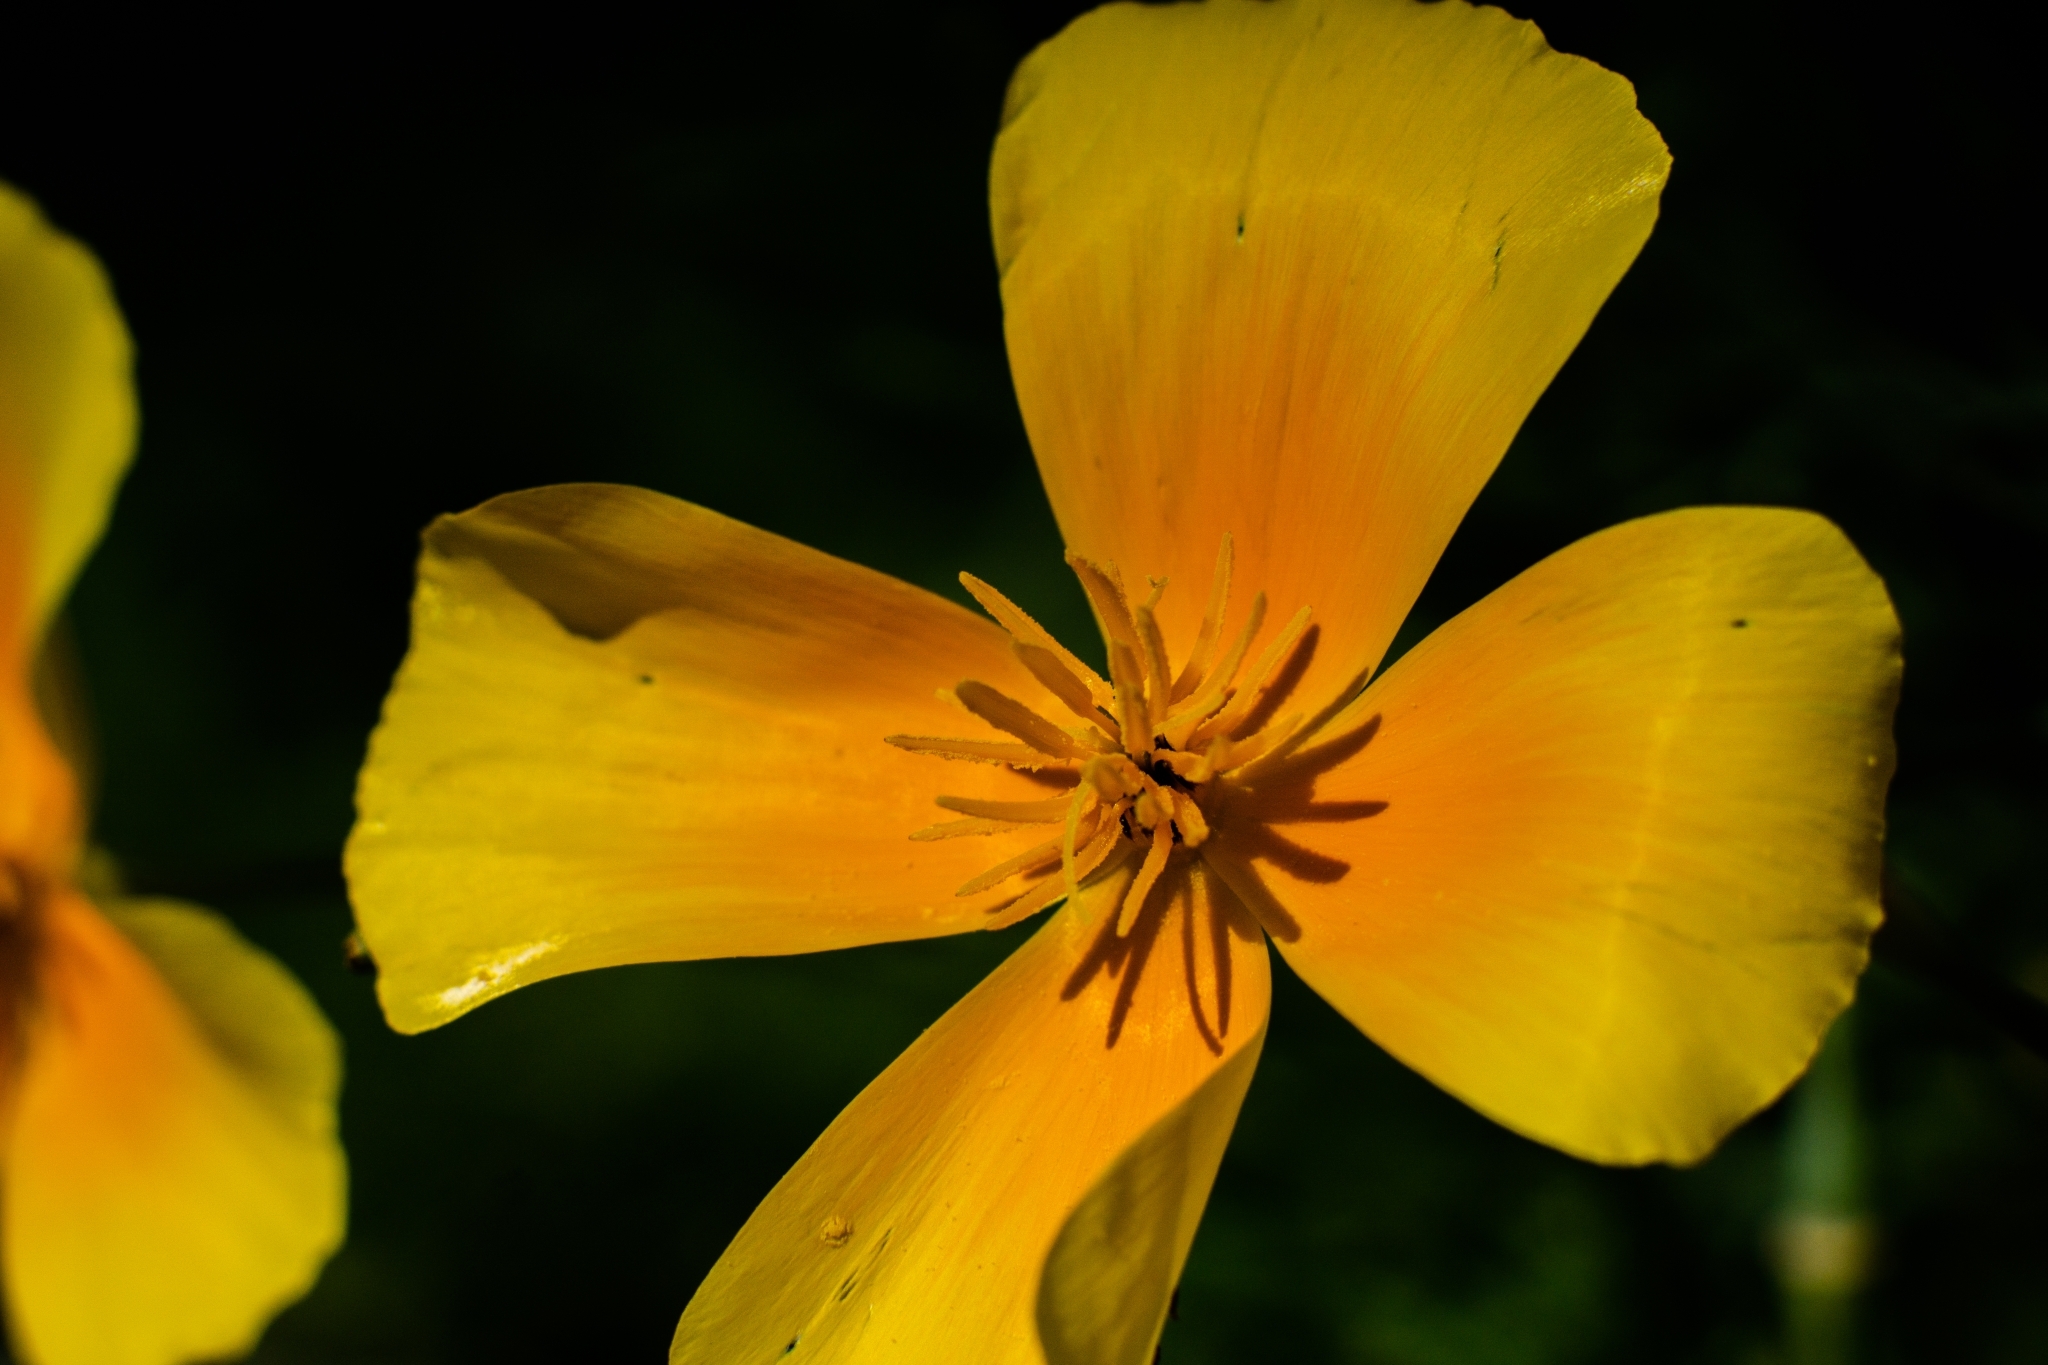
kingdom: Plantae
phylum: Tracheophyta
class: Magnoliopsida
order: Ranunculales
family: Papaveraceae
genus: Eschscholzia
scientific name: Eschscholzia californica
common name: California poppy
